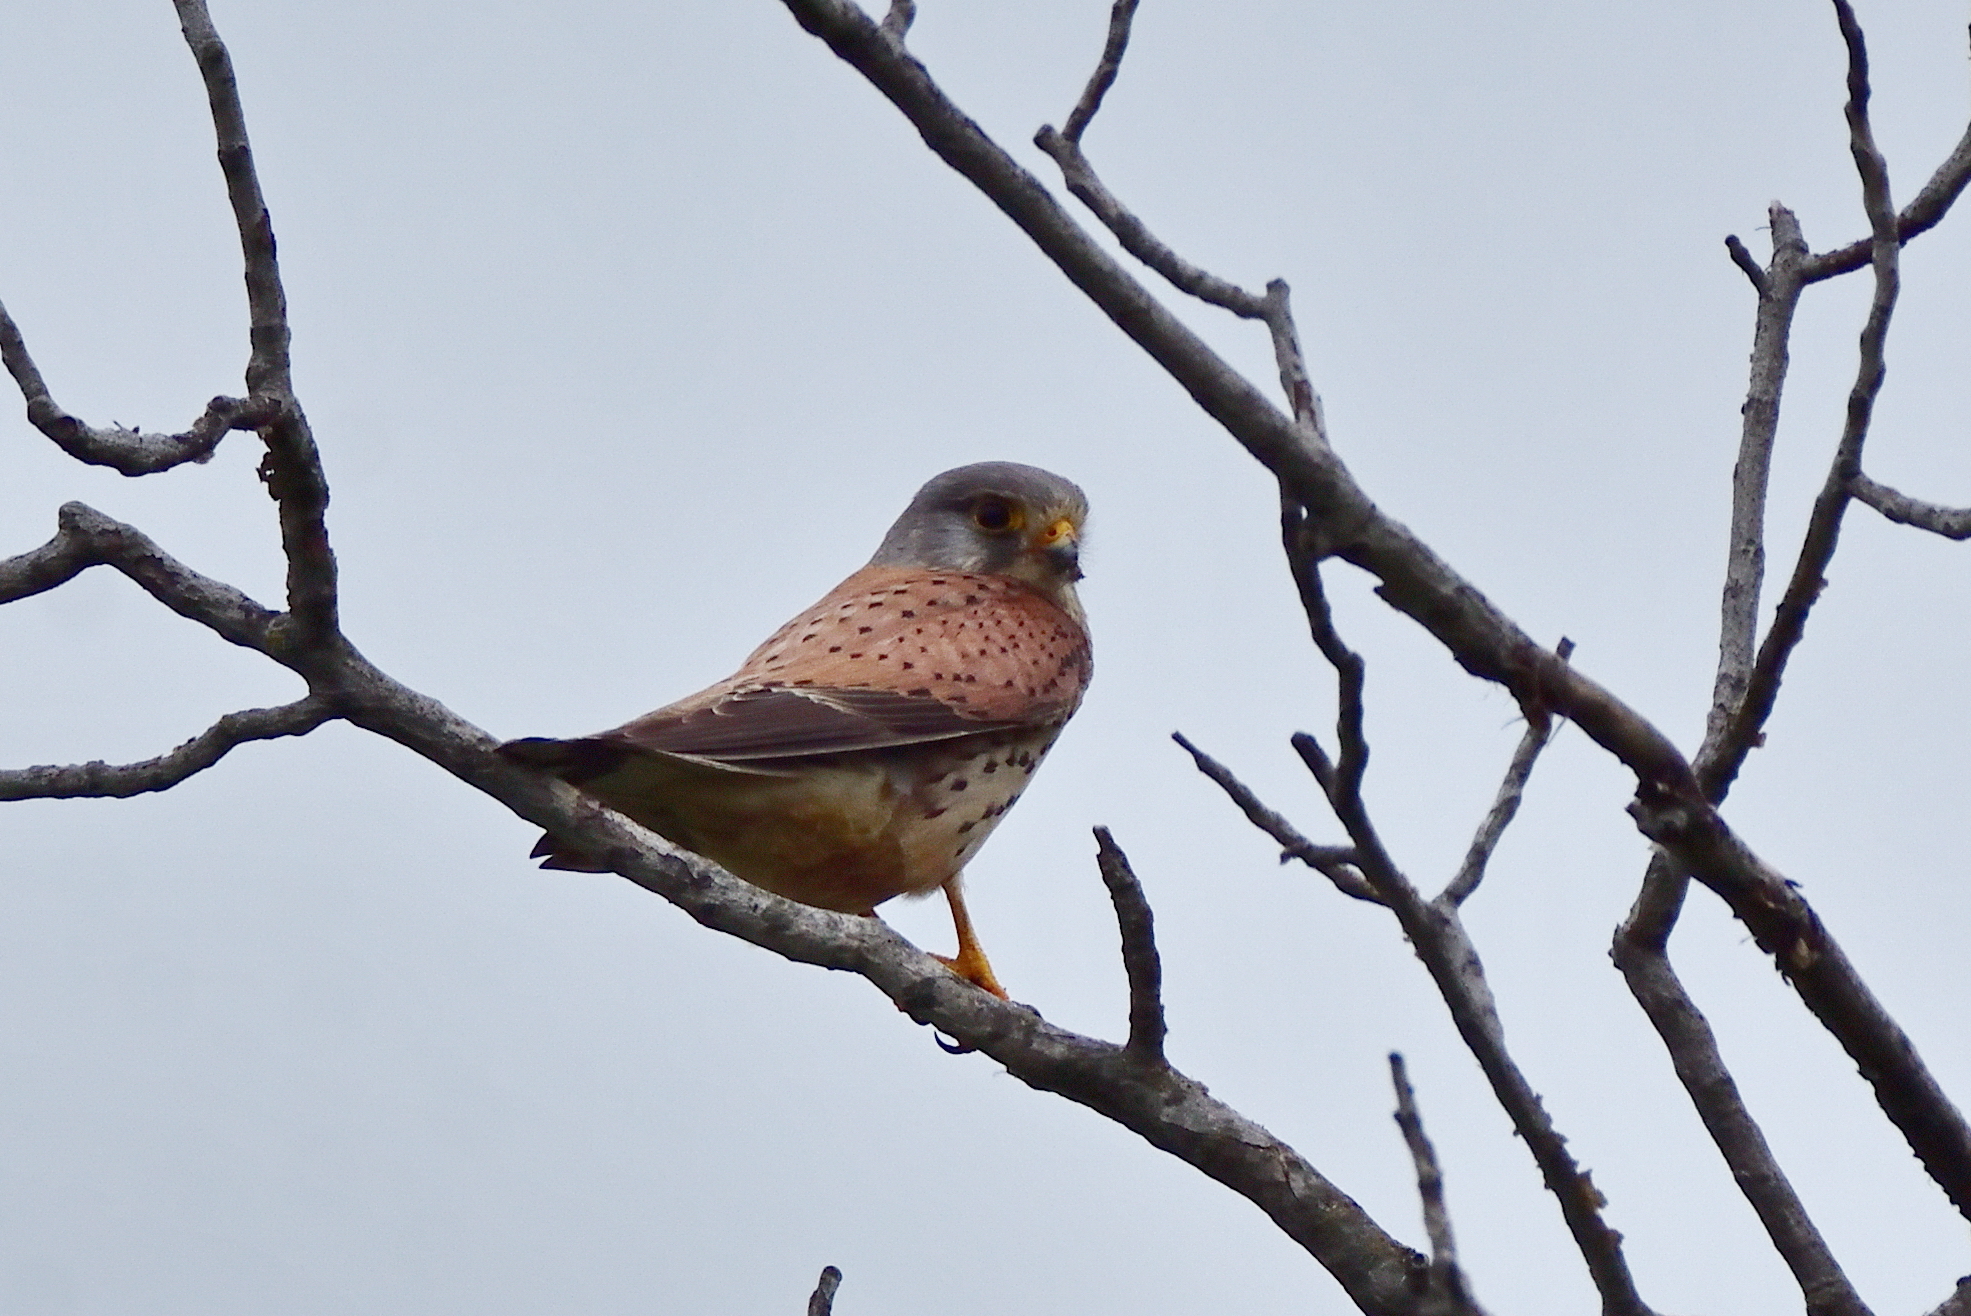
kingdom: Animalia
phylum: Chordata
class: Aves
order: Falconiformes
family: Falconidae
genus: Falco
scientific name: Falco tinnunculus
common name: Common kestrel
